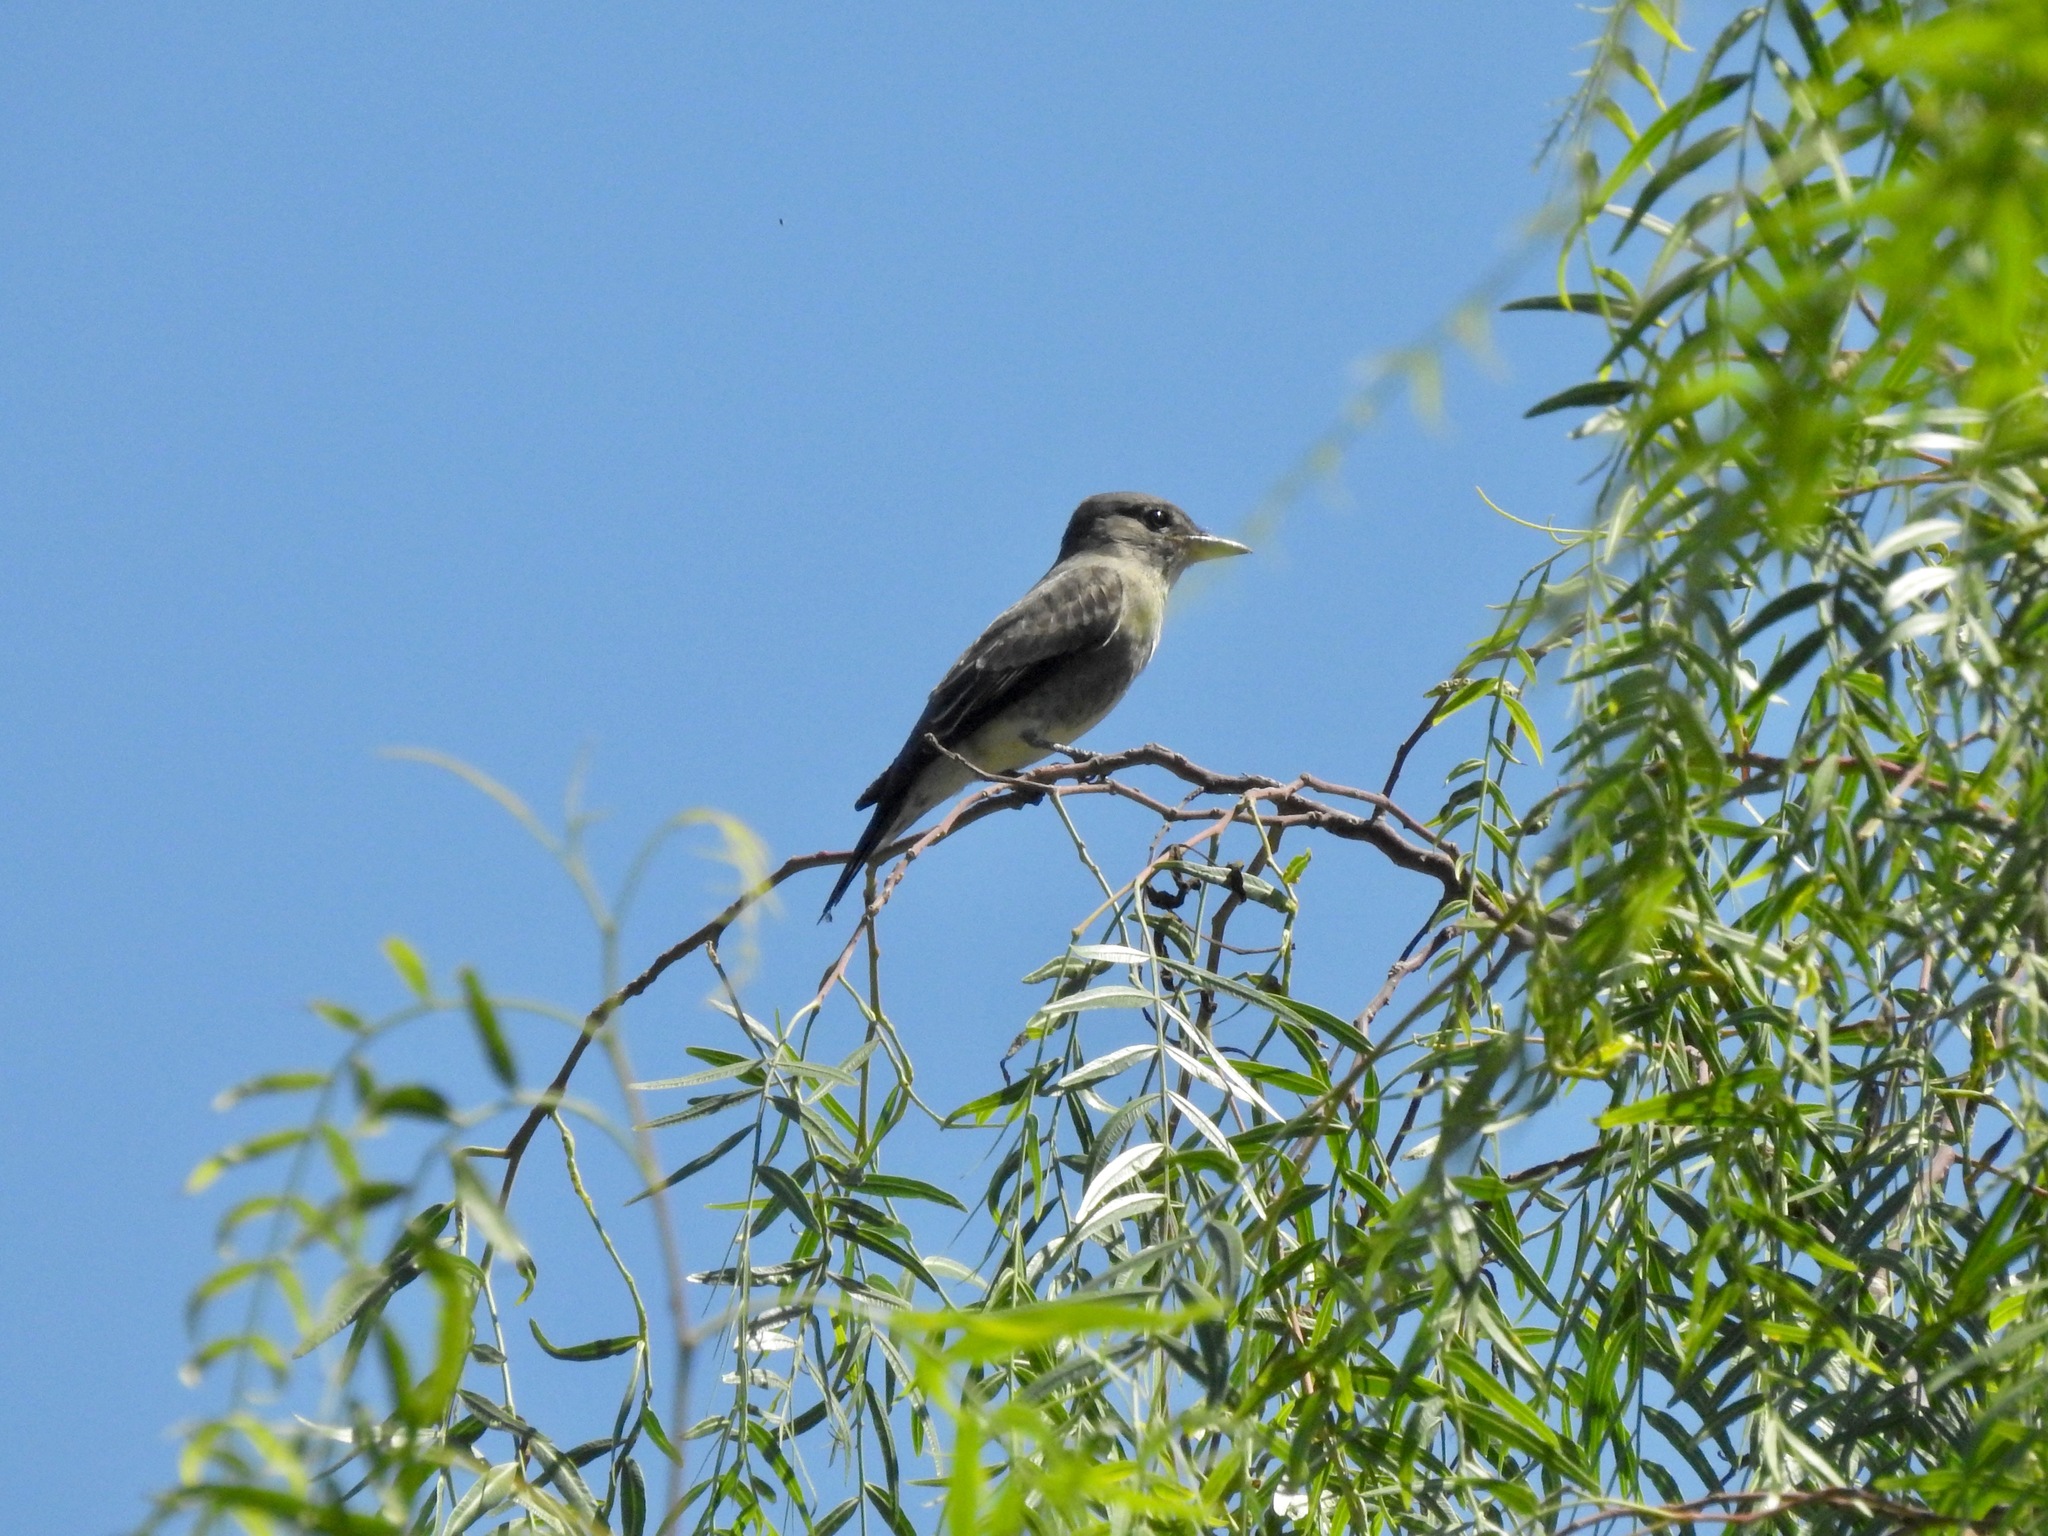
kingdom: Animalia
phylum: Chordata
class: Aves
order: Passeriformes
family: Tyrannidae
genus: Contopus
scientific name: Contopus cooperi
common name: Olive-sided flycatcher
